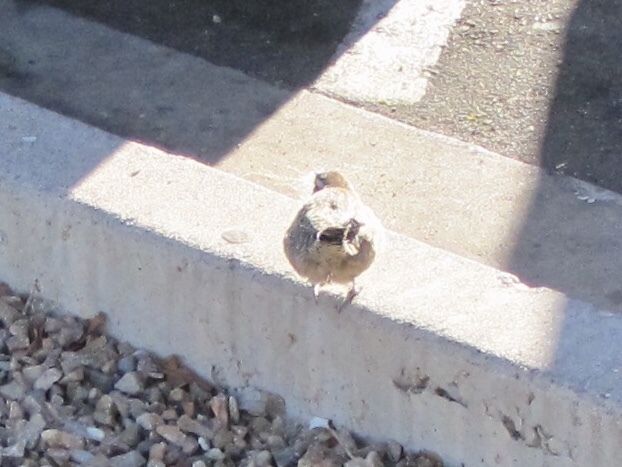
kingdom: Animalia
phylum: Chordata
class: Aves
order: Passeriformes
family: Troglodytidae
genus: Campylorhynchus
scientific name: Campylorhynchus brunneicapillus
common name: Cactus wren
